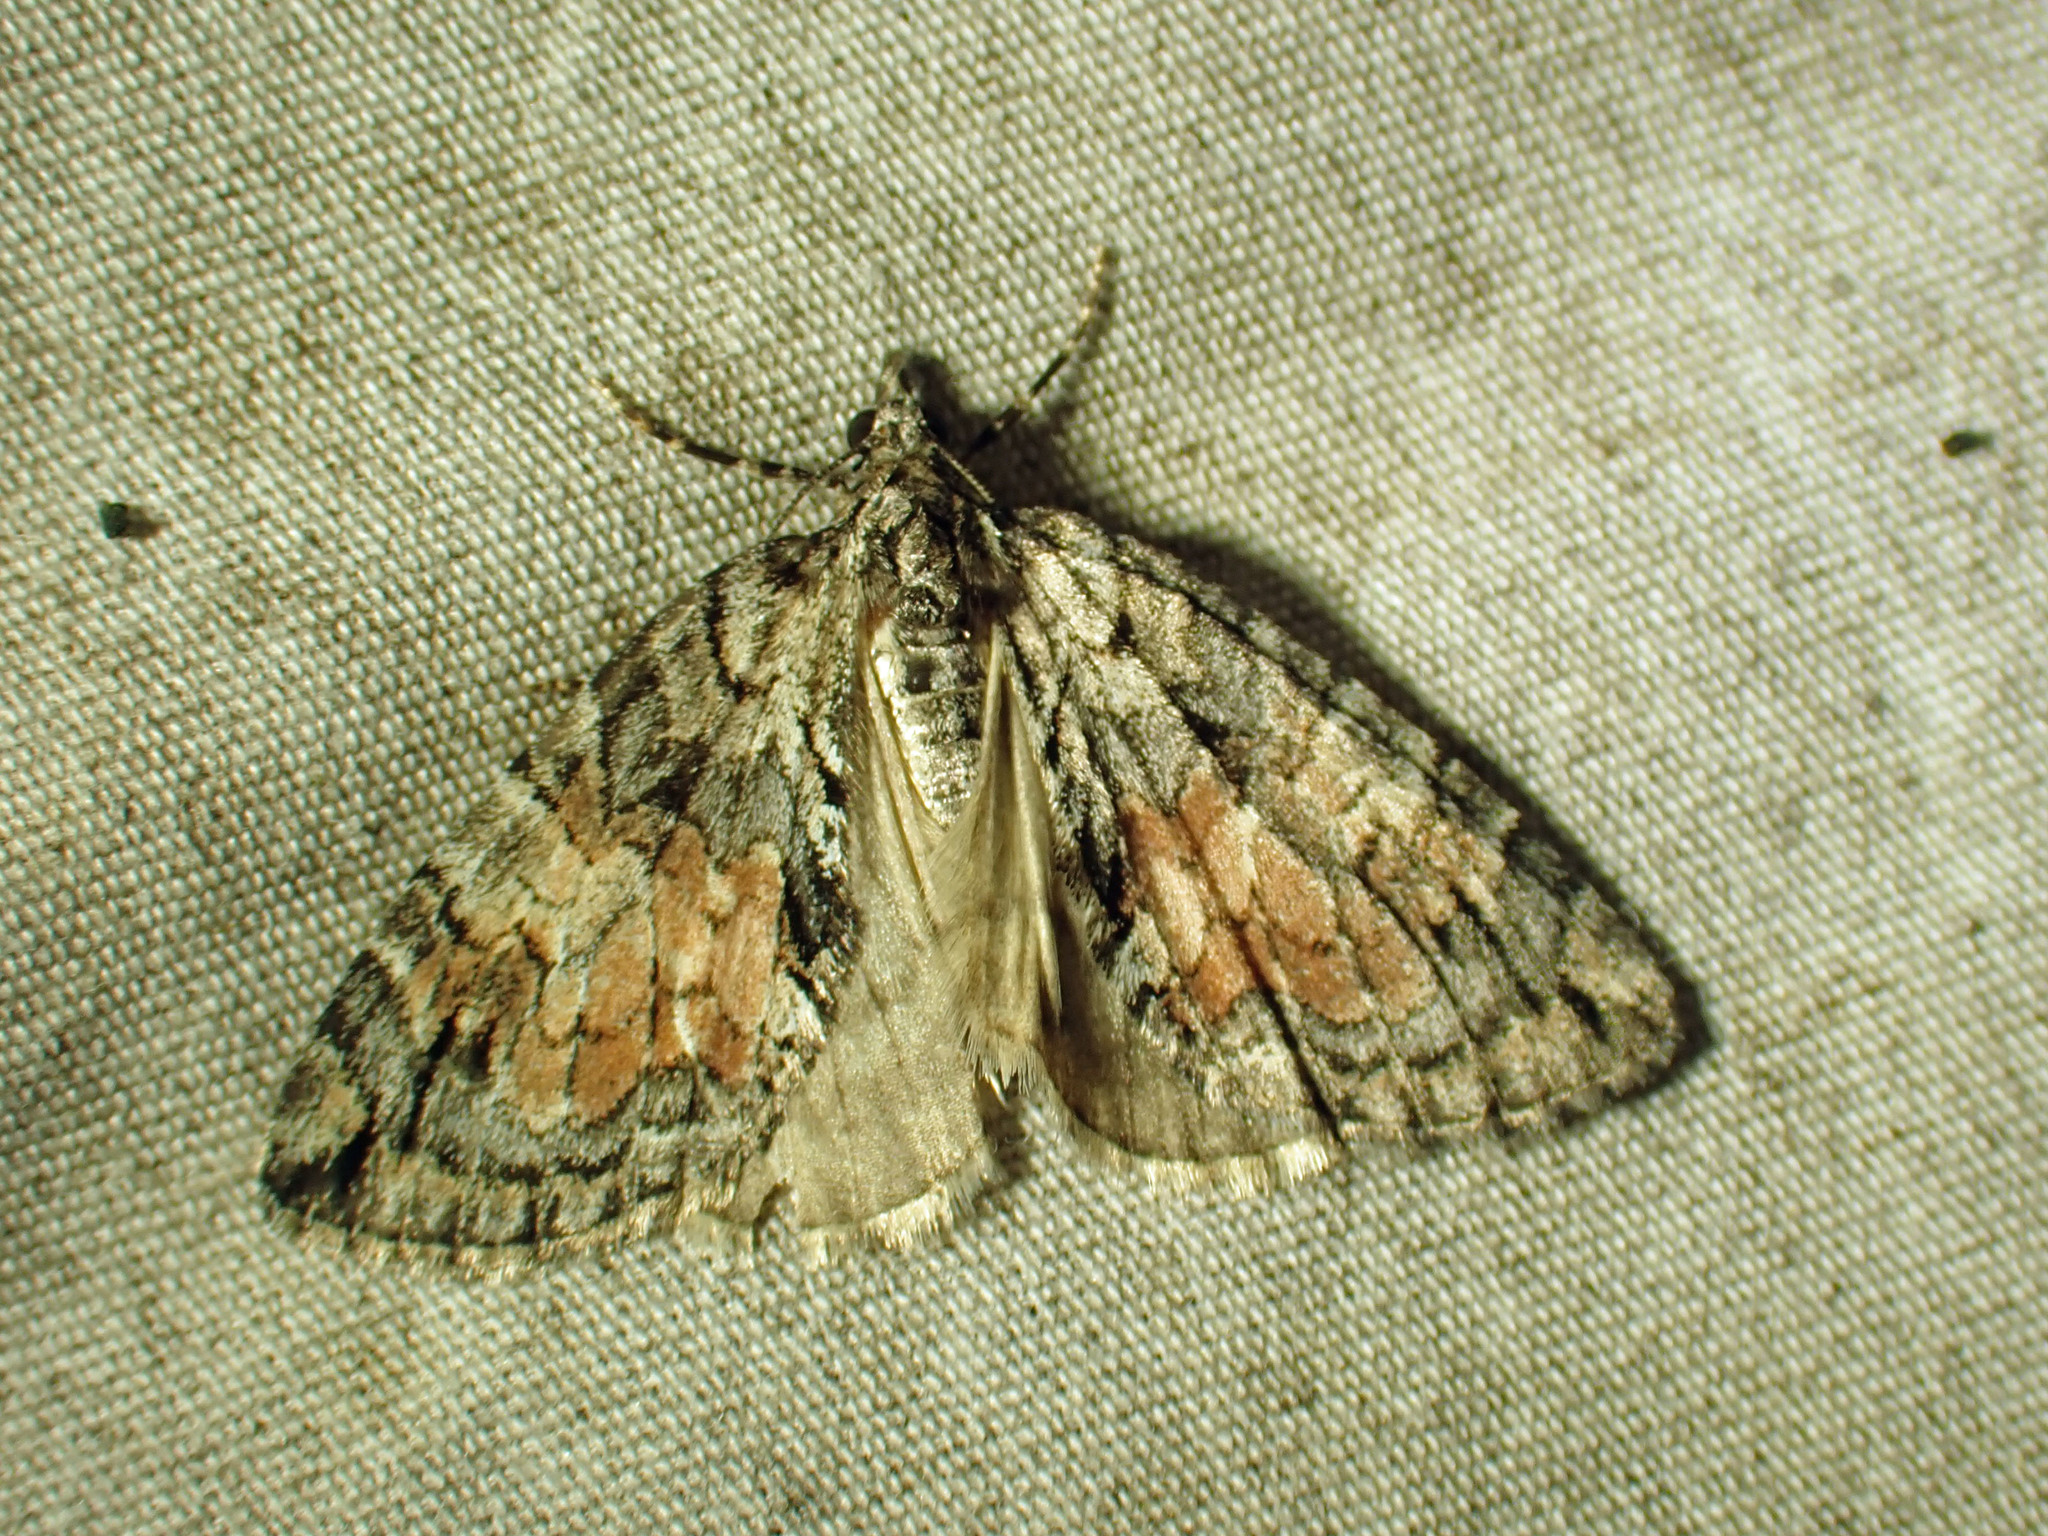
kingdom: Animalia
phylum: Arthropoda
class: Insecta
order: Lepidoptera
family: Geometridae
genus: Hydriomena
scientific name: Hydriomena perfracta
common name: Shattered hydriomena moth
